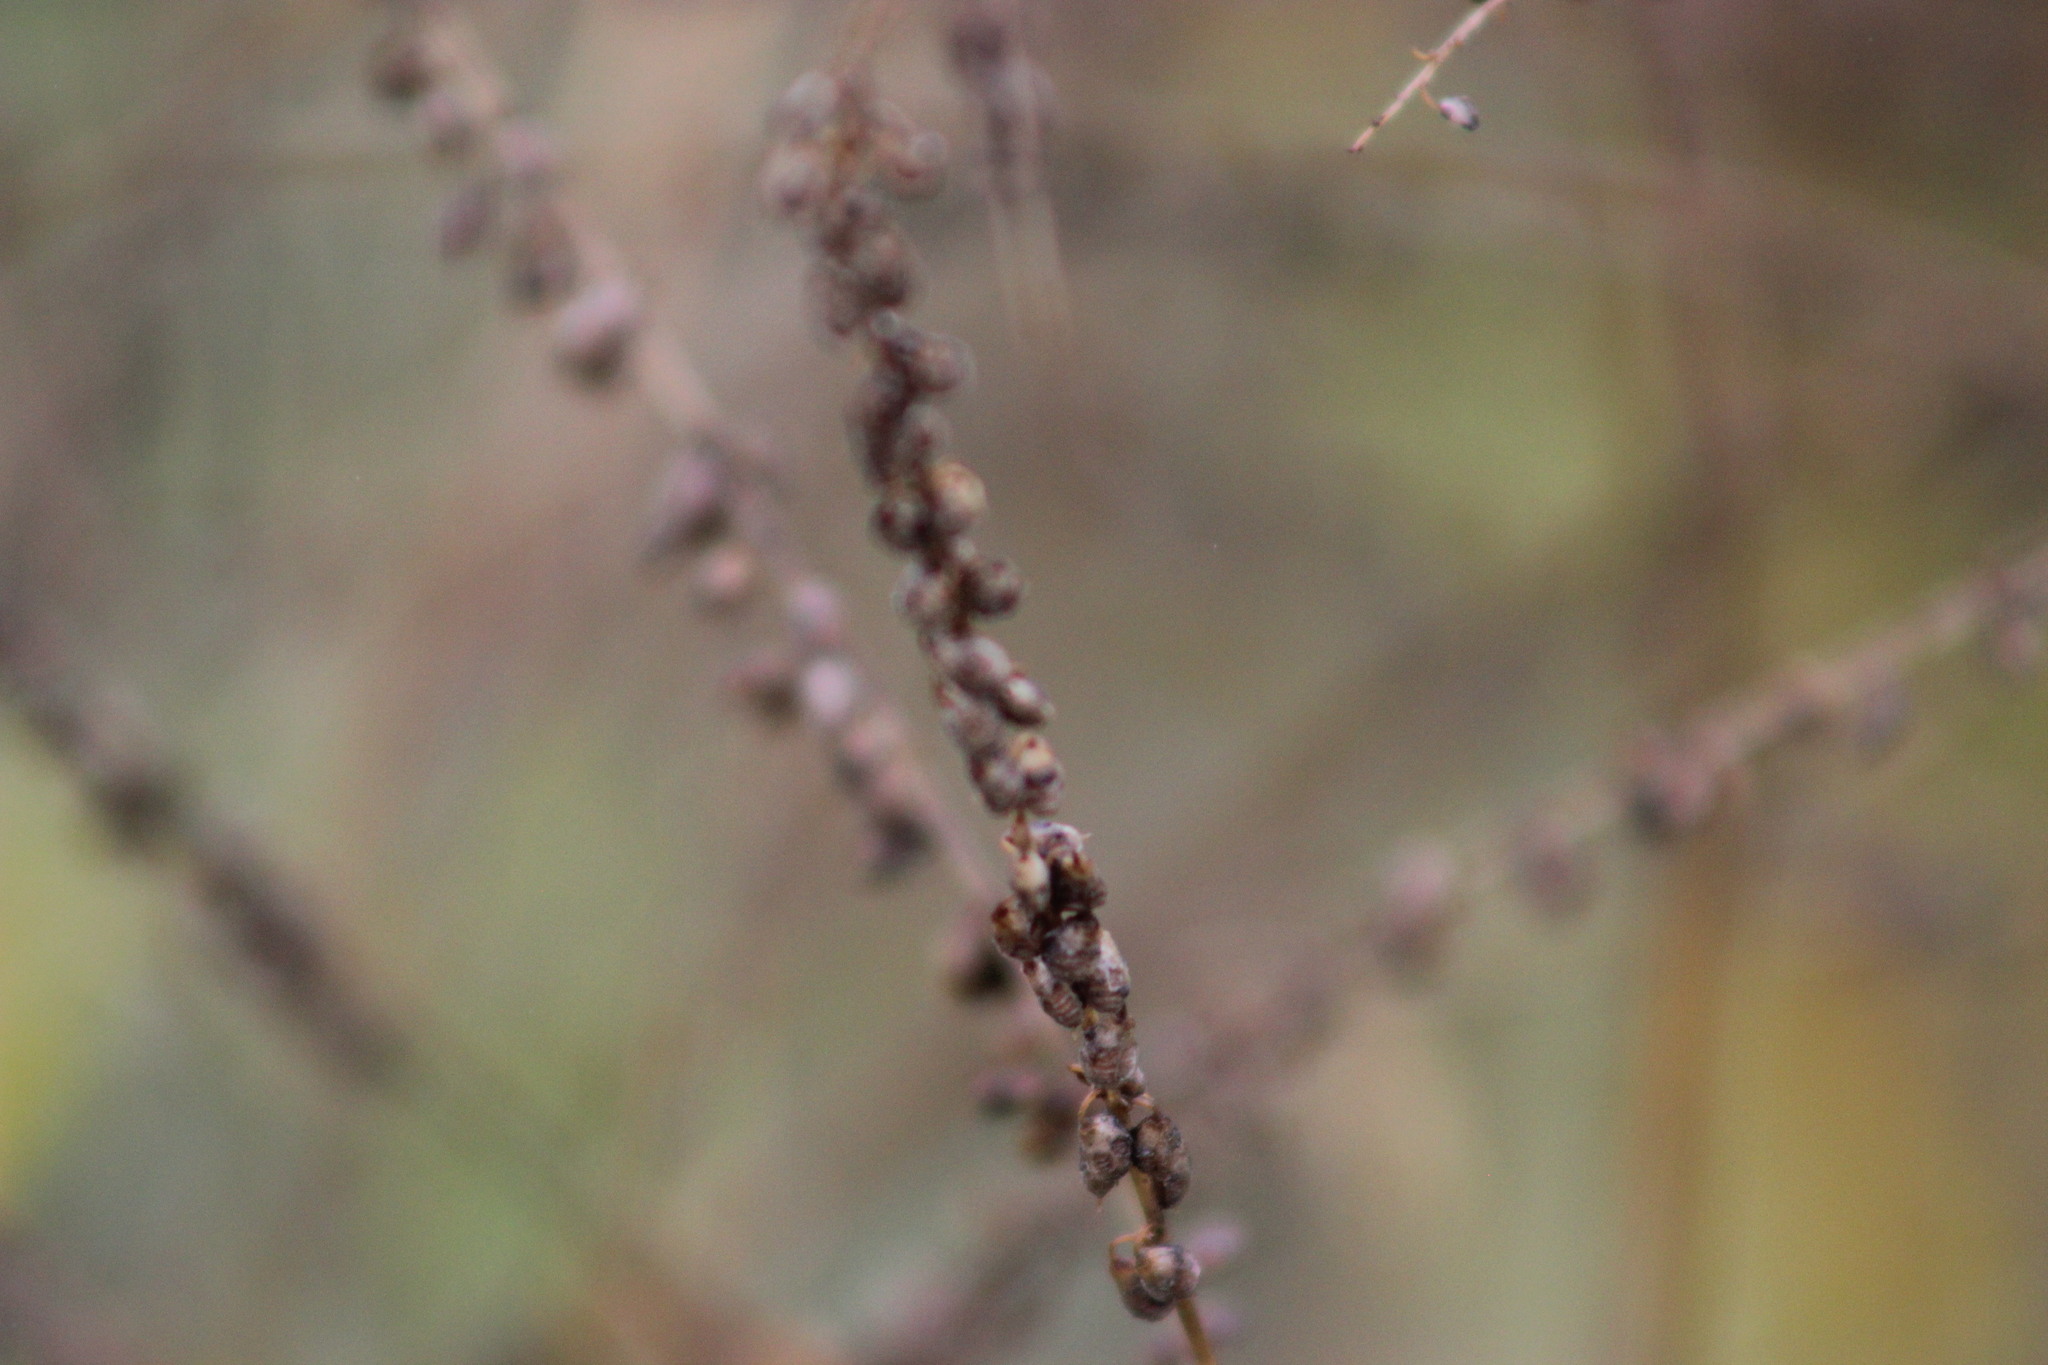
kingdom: Plantae
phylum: Tracheophyta
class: Magnoliopsida
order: Fabales
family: Fabaceae
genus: Melilotus
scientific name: Melilotus officinalis
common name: Sweetclover
